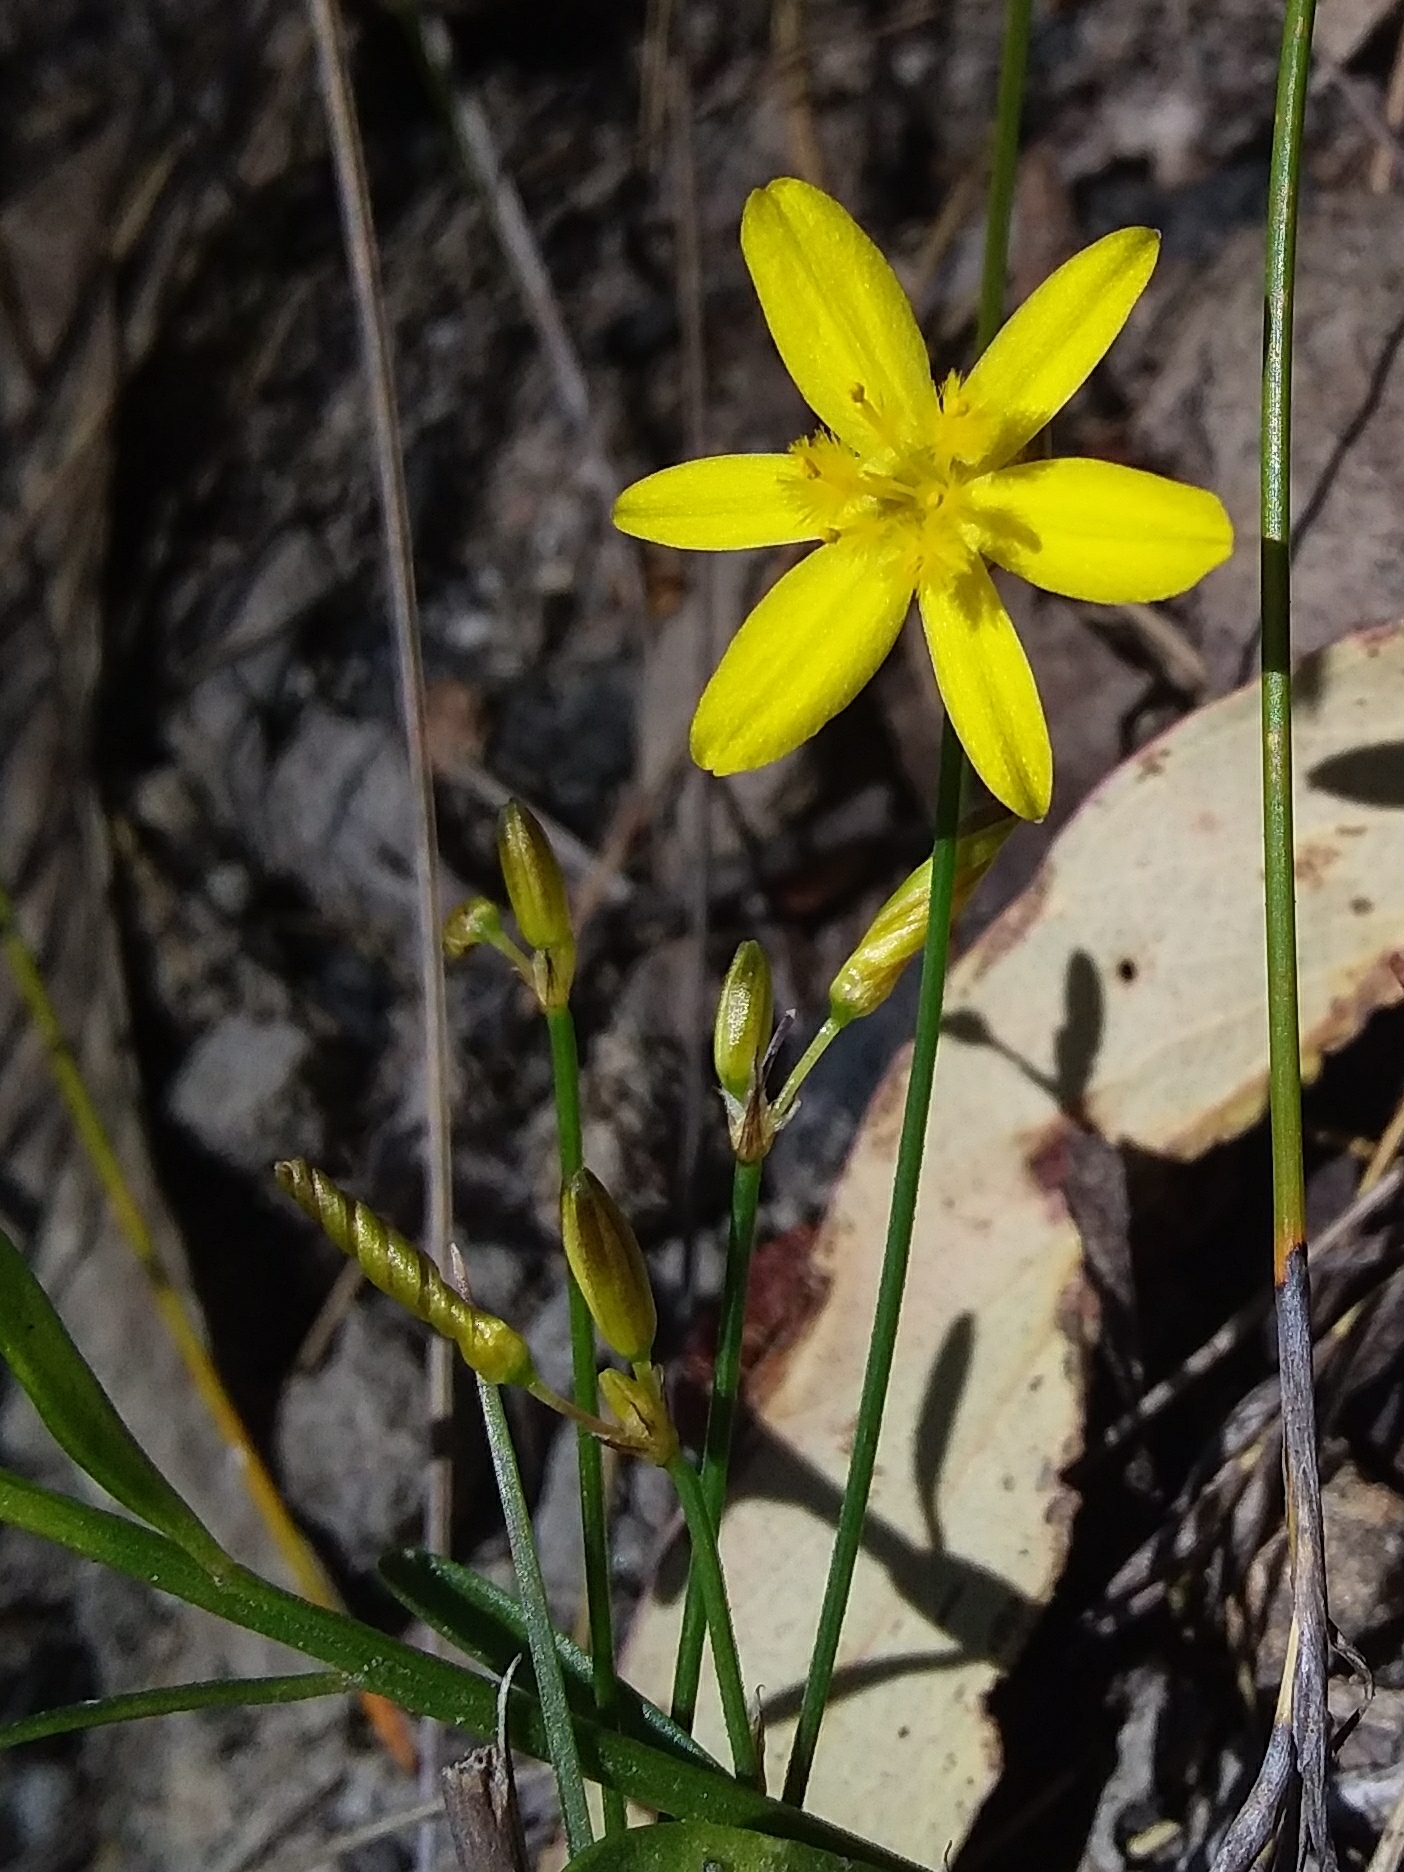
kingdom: Plantae
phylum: Tracheophyta
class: Liliopsida
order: Asparagales
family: Asphodelaceae
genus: Tricoryne
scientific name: Tricoryne elatior
